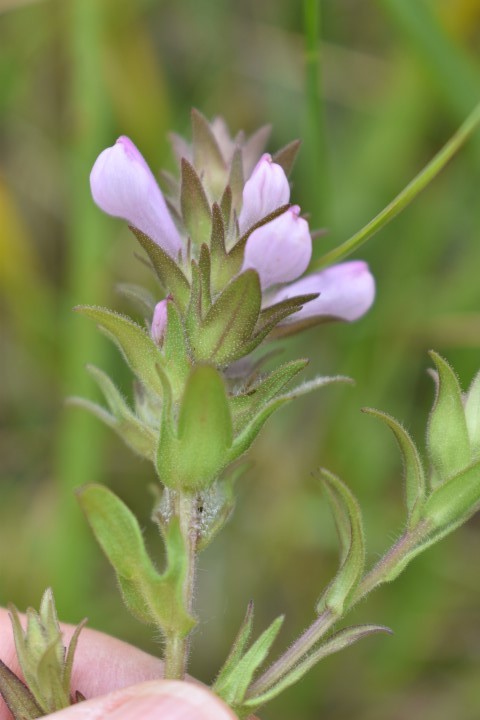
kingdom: Plantae
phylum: Tracheophyta
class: Magnoliopsida
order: Lamiales
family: Orobanchaceae
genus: Orthocarpus
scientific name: Orthocarpus bracteosus
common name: Rosy owl's-clover
